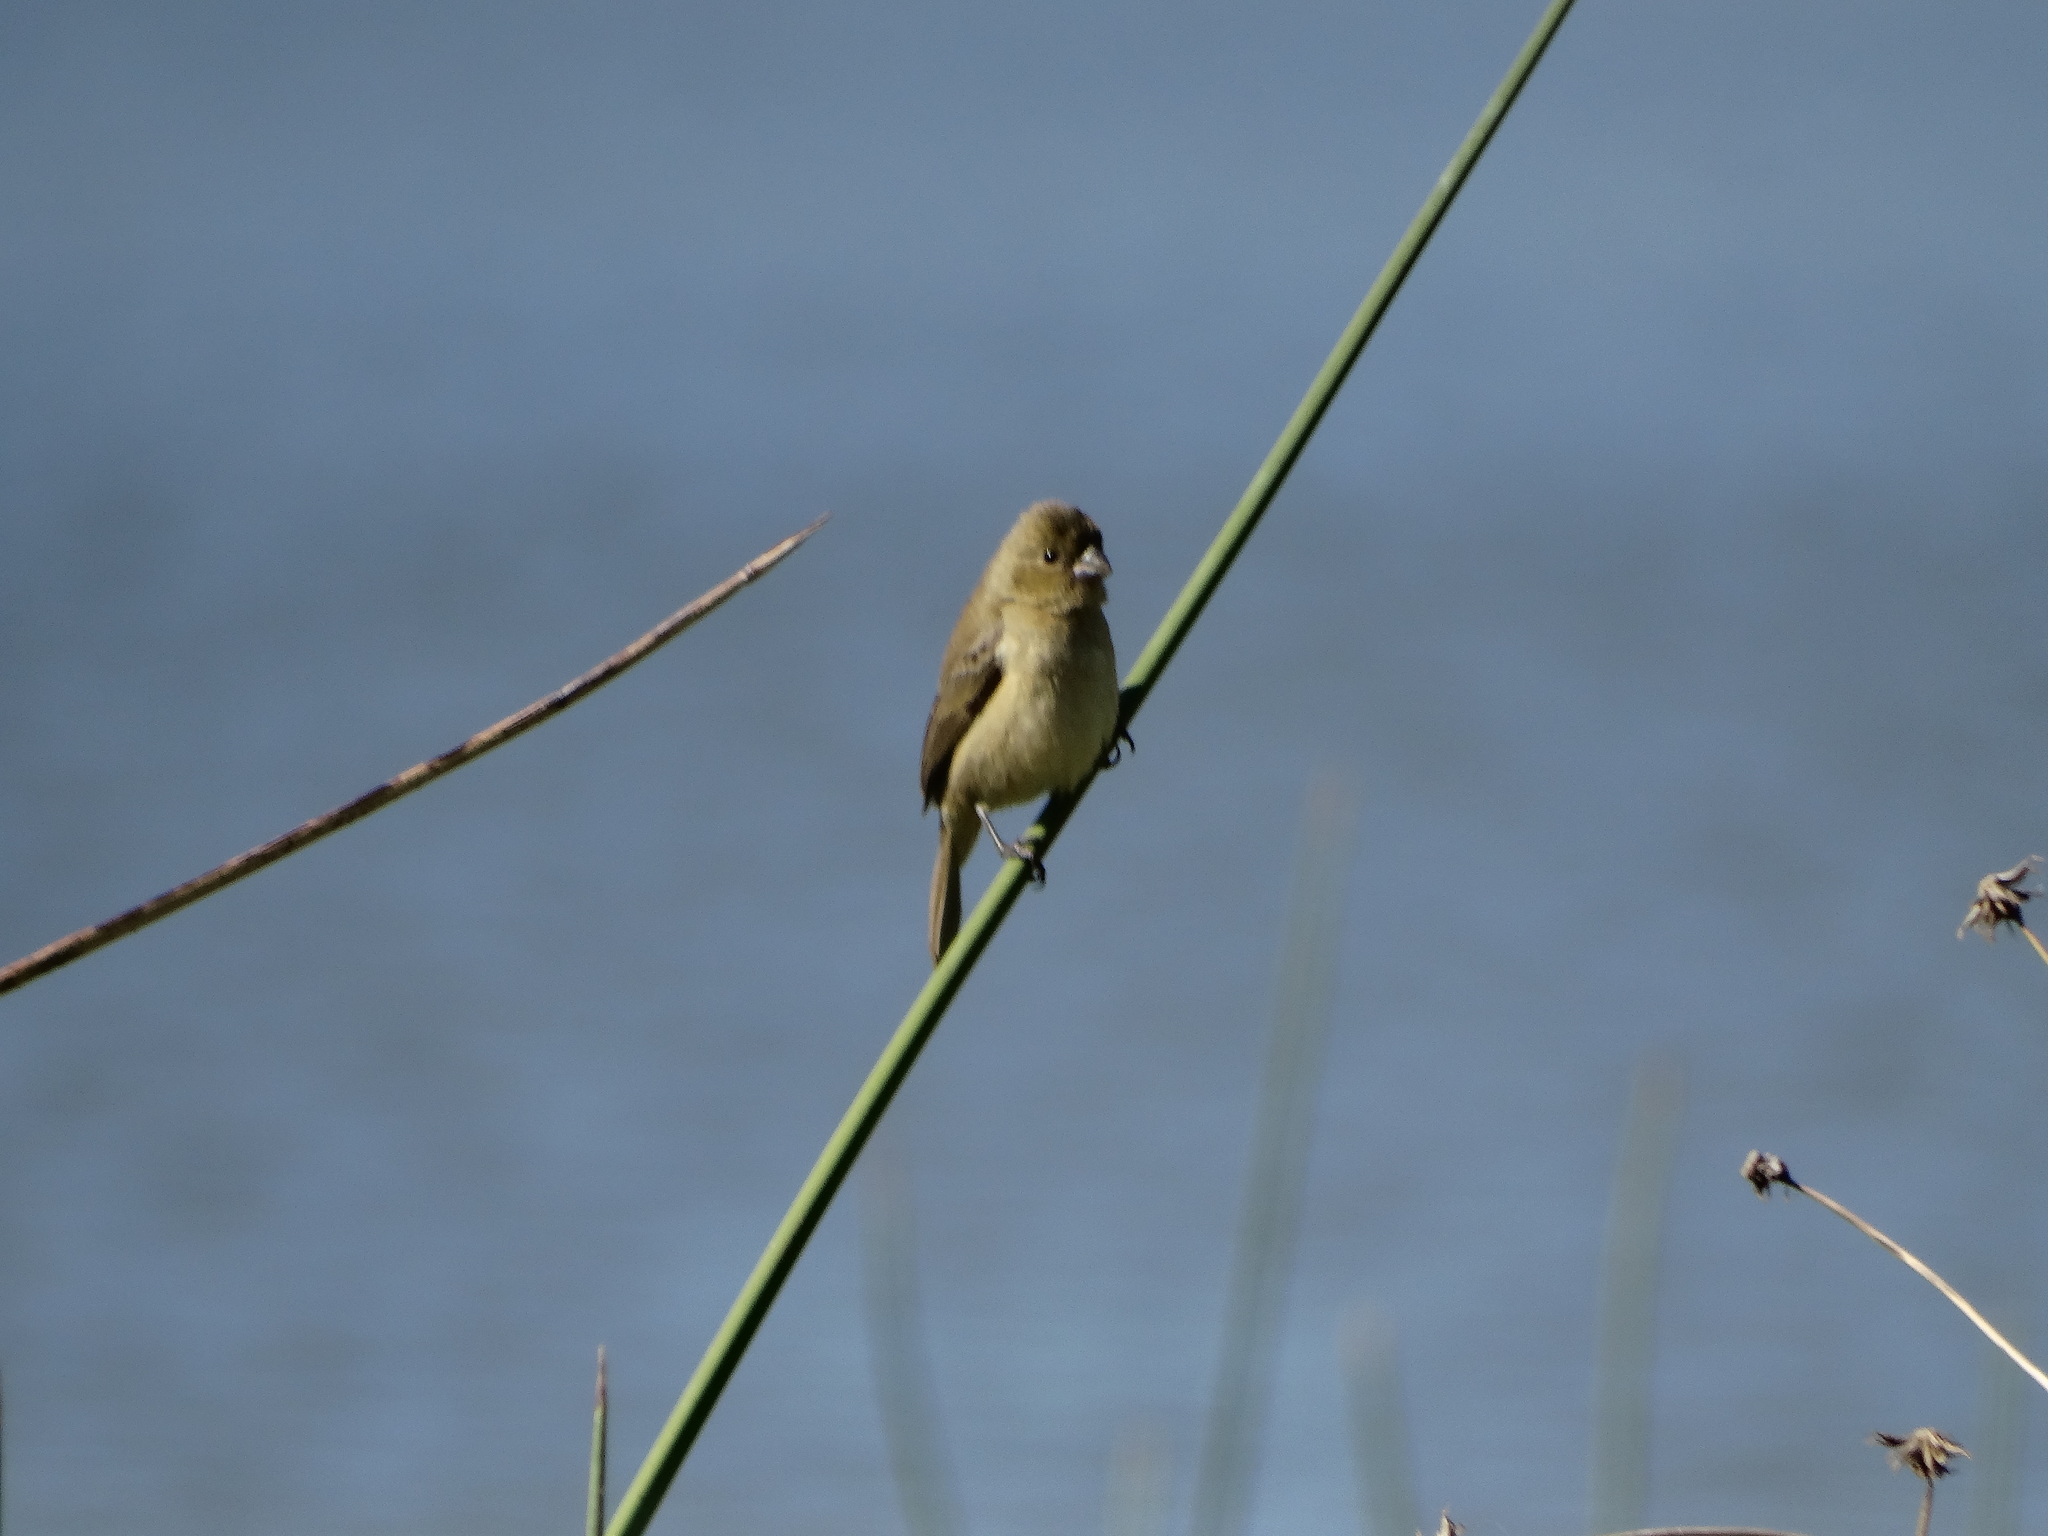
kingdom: Animalia
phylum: Chordata
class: Aves
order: Passeriformes
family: Thraupidae
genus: Sporophila
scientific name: Sporophila torqueola
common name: White-collared seedeater
